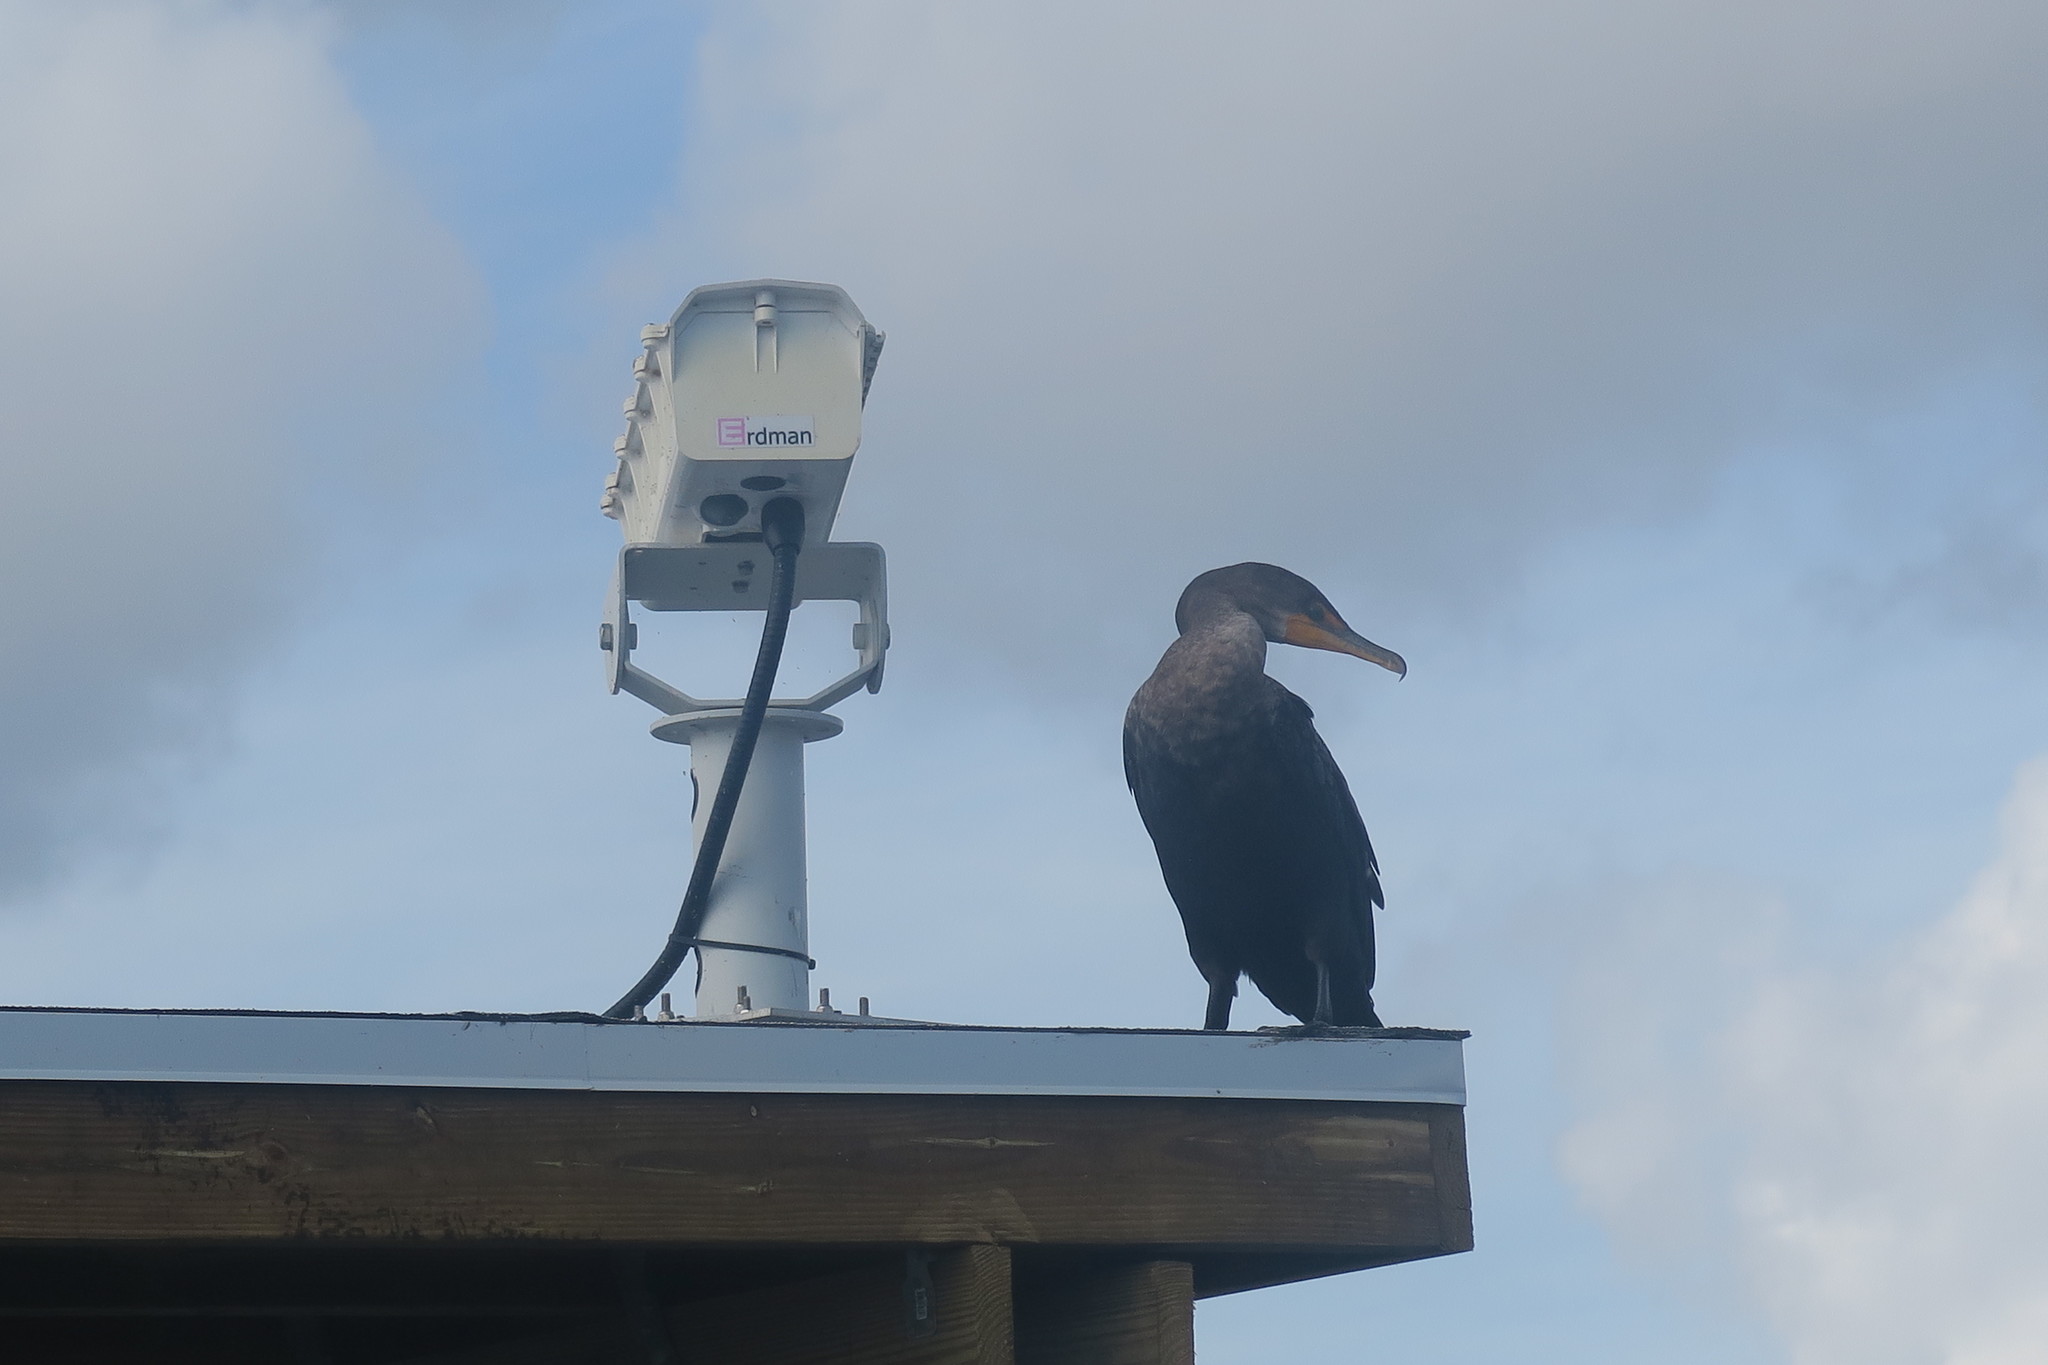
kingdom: Animalia
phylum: Chordata
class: Aves
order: Suliformes
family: Phalacrocoracidae
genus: Phalacrocorax
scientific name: Phalacrocorax auritus
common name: Double-crested cormorant
